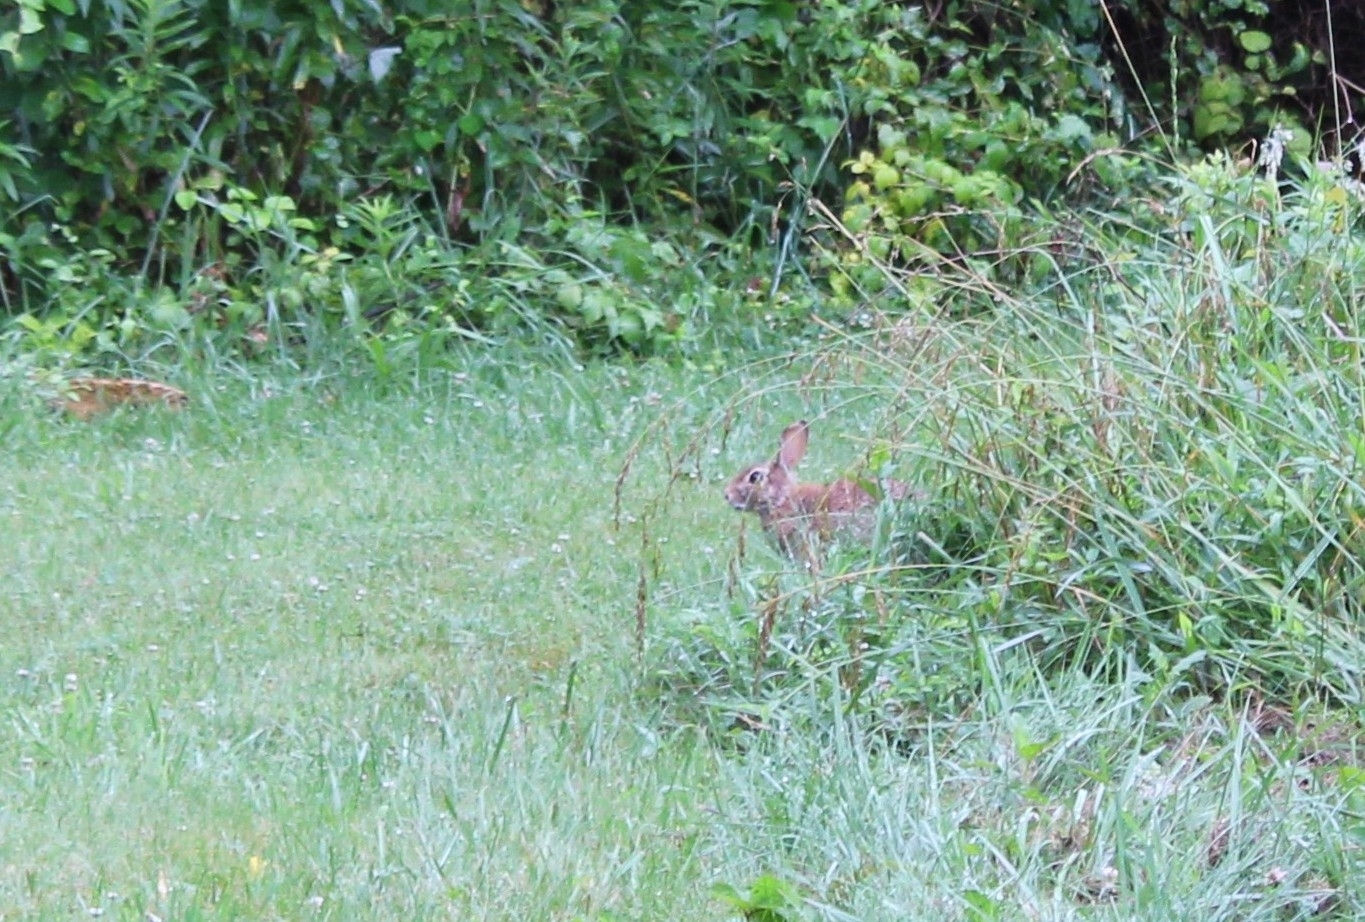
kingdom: Animalia
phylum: Chordata
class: Mammalia
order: Lagomorpha
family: Leporidae
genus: Sylvilagus
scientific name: Sylvilagus floridanus
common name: Eastern cottontail
